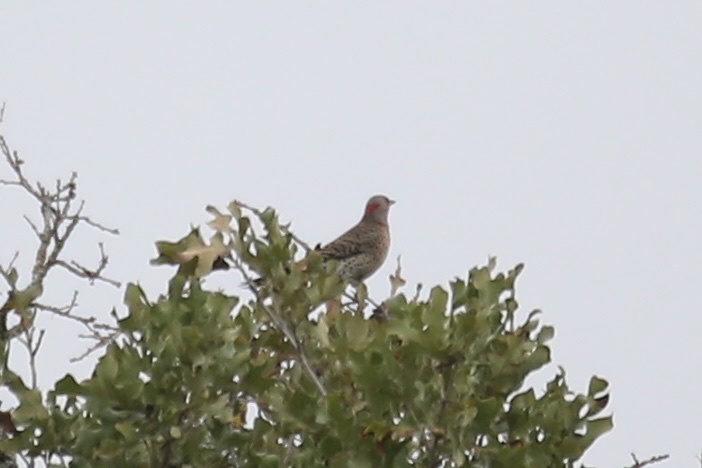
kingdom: Animalia
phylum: Chordata
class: Aves
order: Piciformes
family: Picidae
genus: Colaptes
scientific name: Colaptes auratus
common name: Northern flicker
